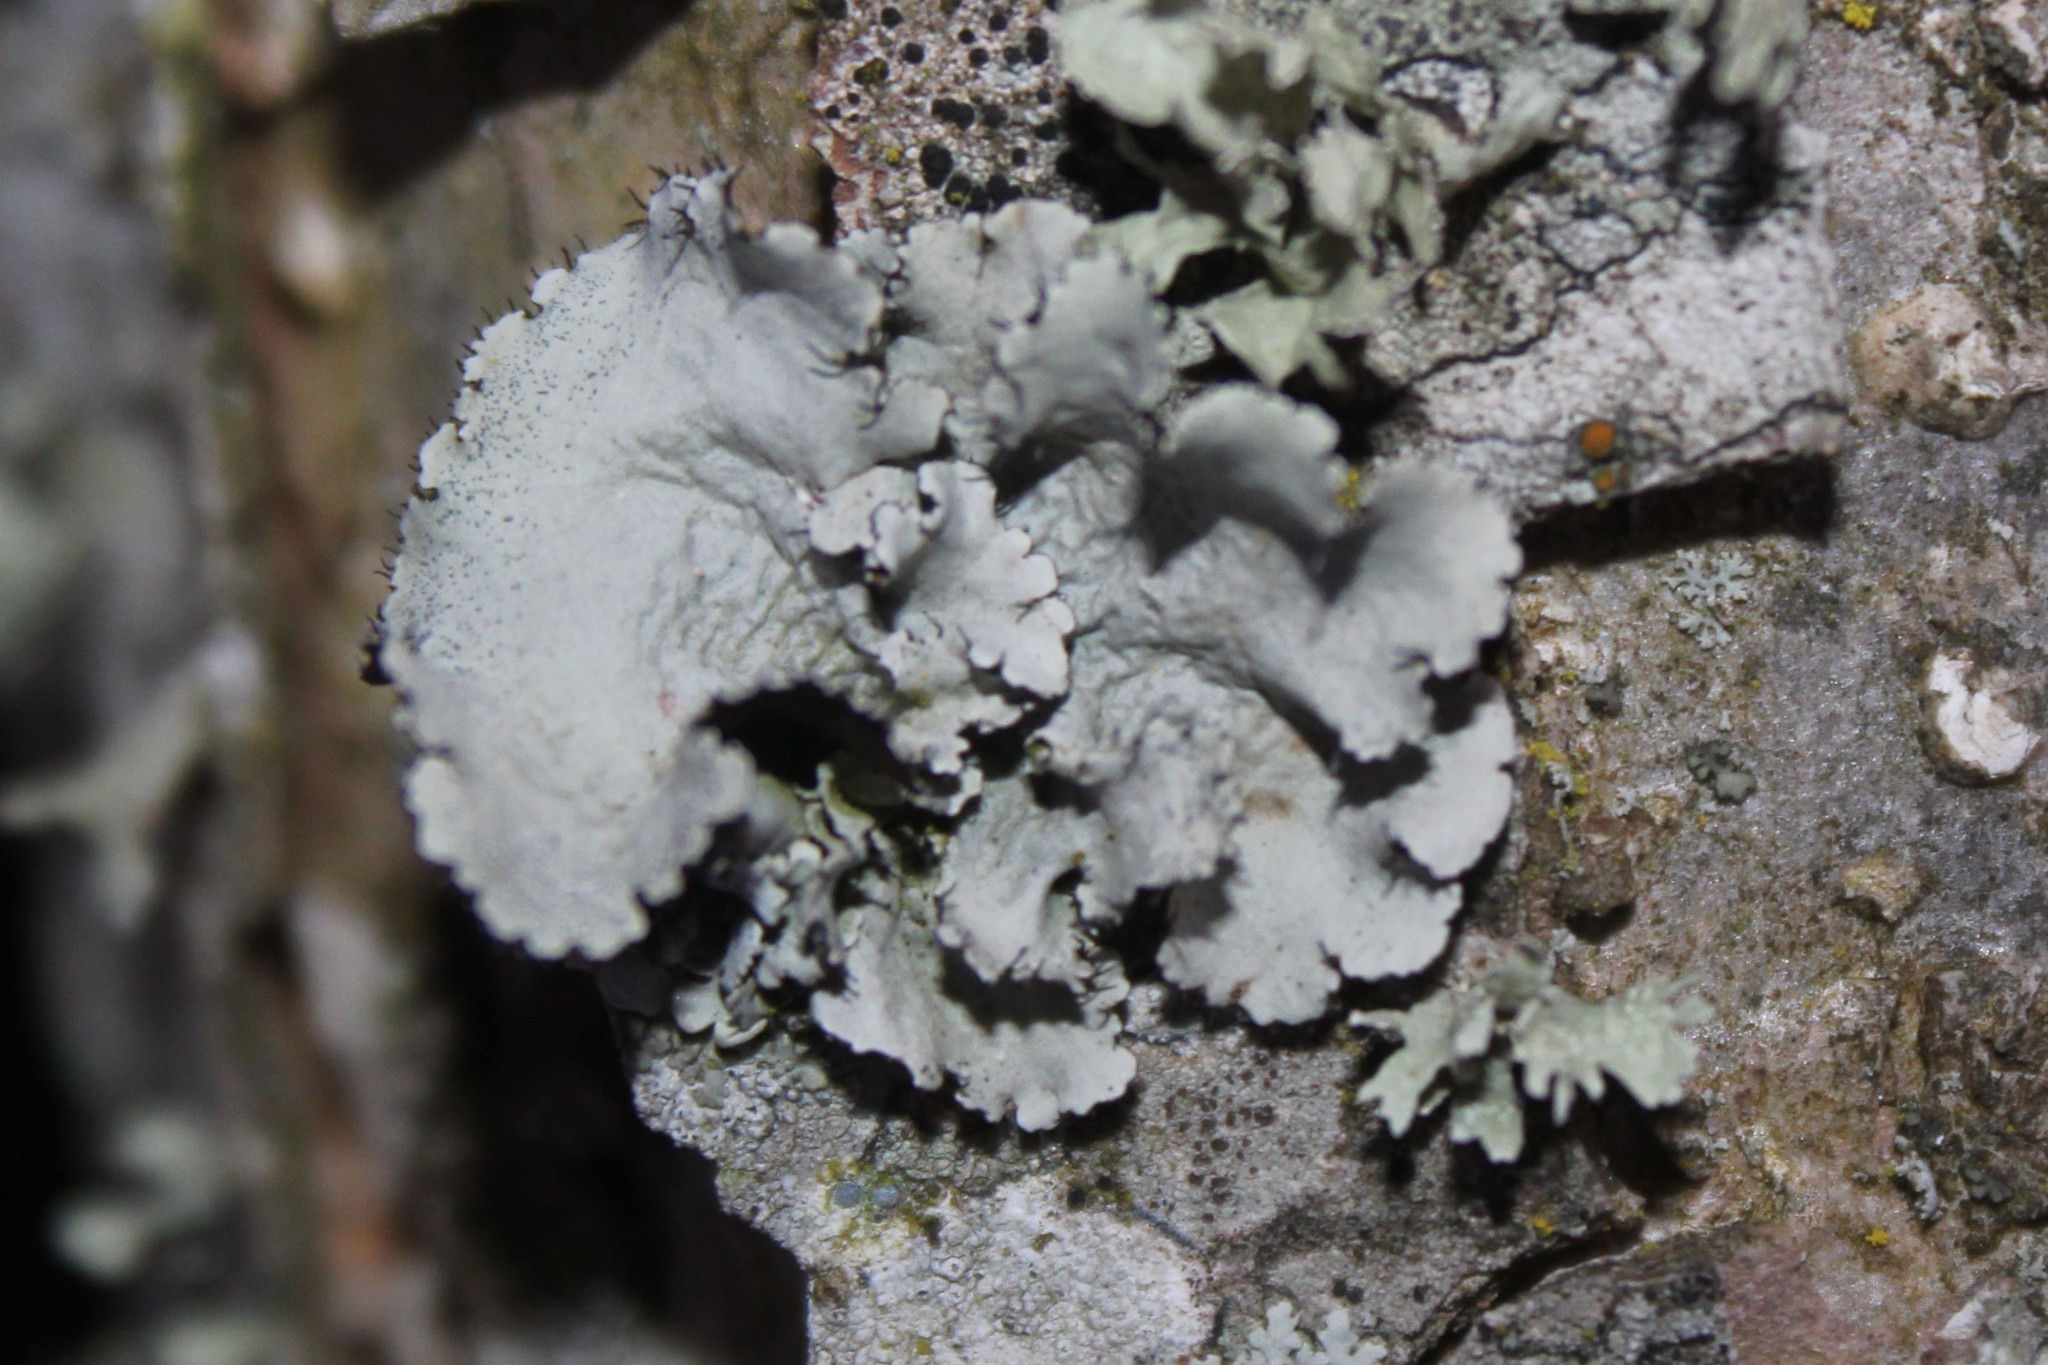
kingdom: Fungi
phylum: Ascomycota
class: Lecanoromycetes
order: Lecanorales
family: Parmeliaceae
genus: Parmotrema
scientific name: Parmotrema hypotropum
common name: Powdered ruffle lichen
